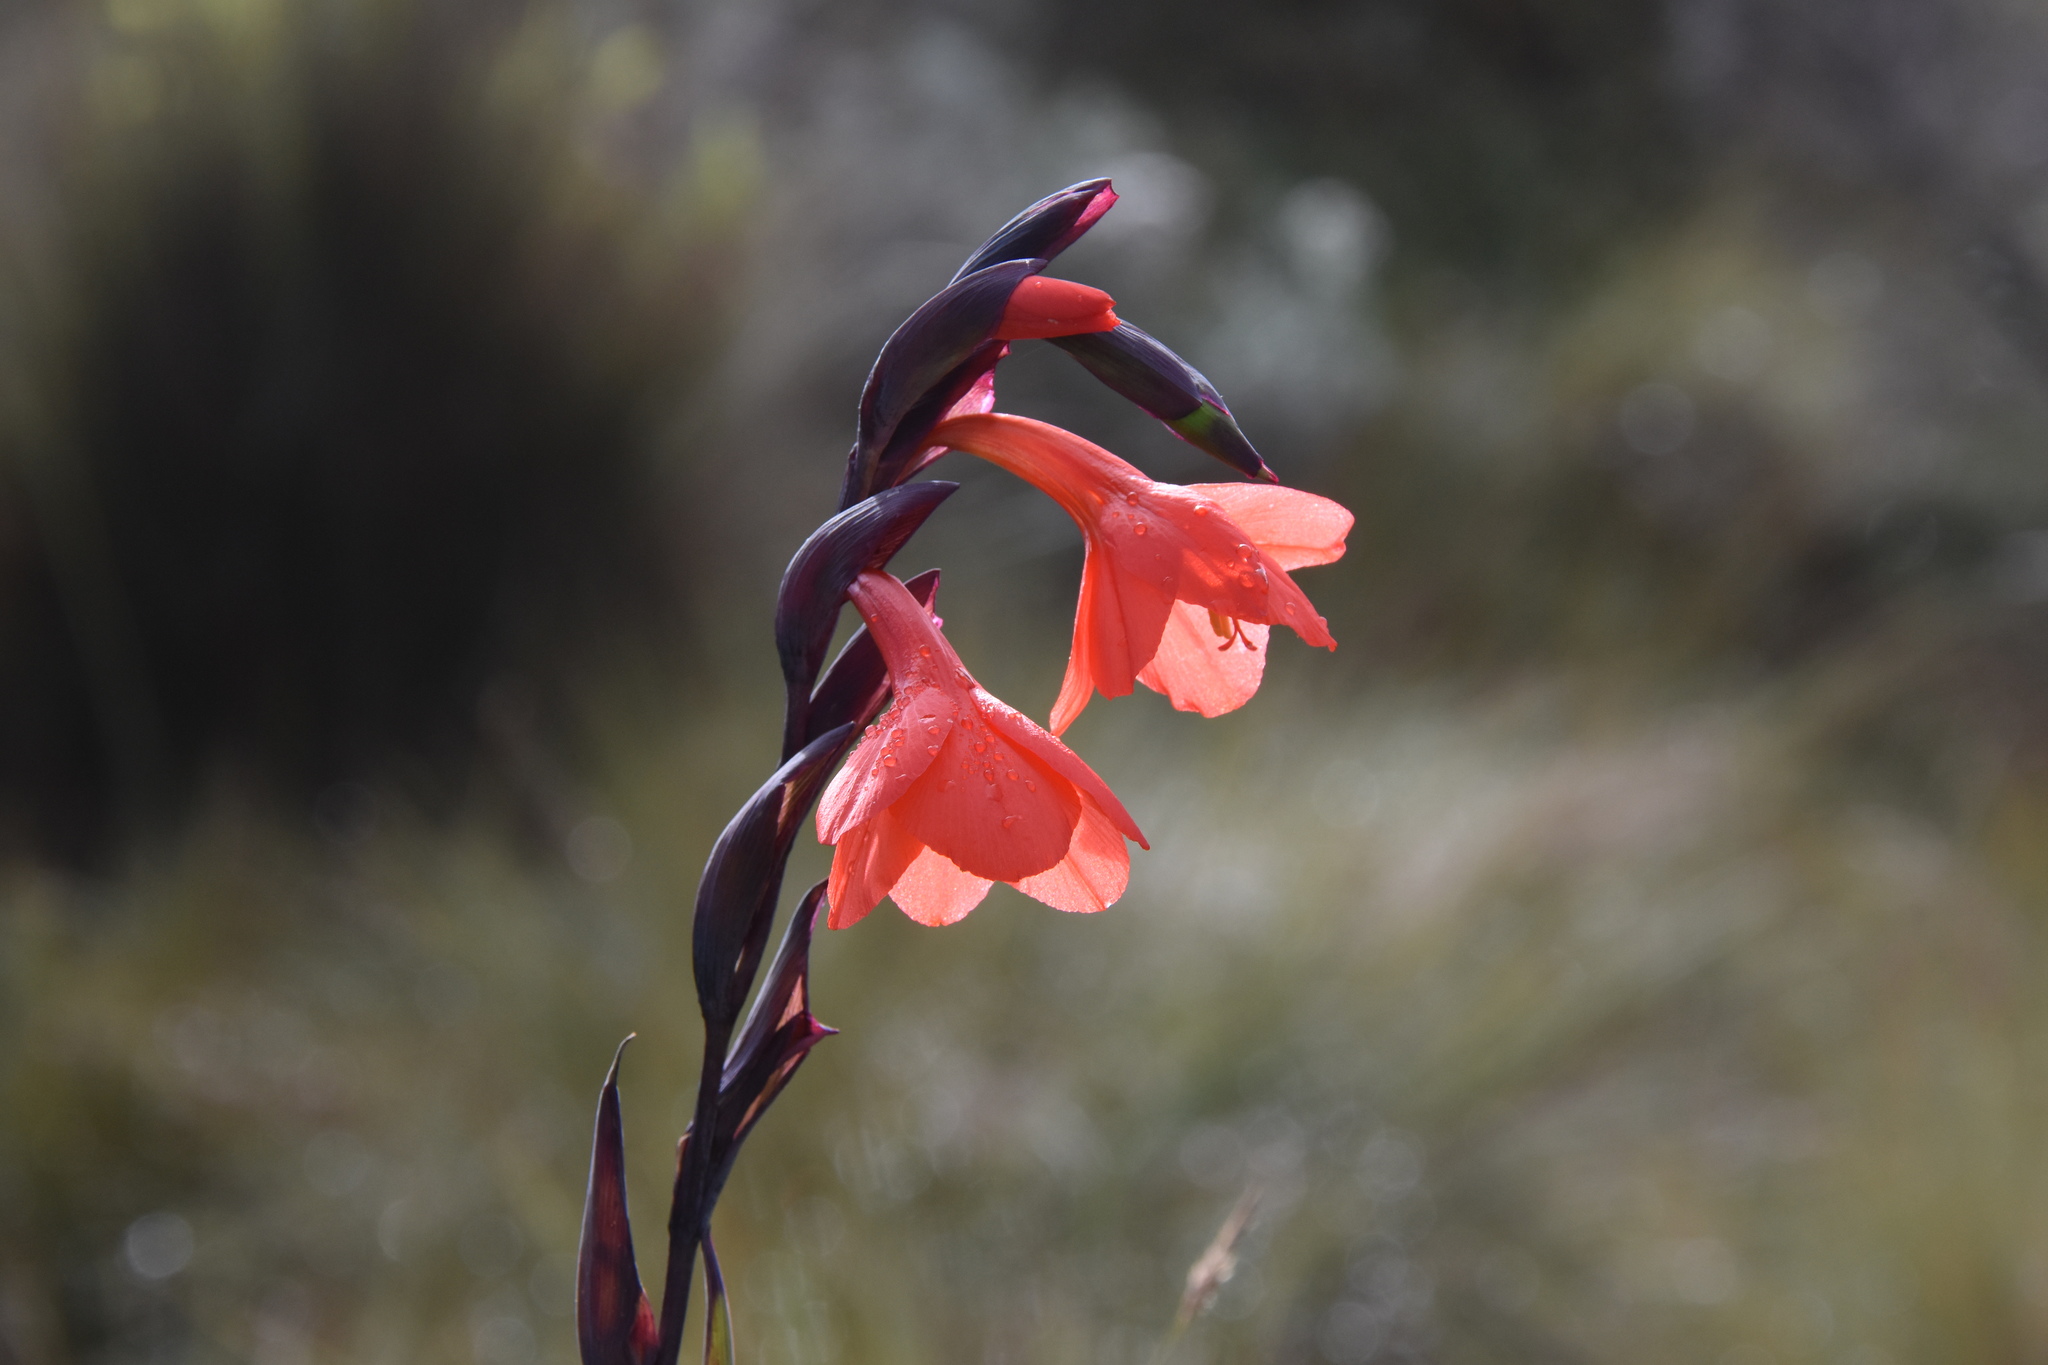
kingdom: Plantae
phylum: Tracheophyta
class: Liliopsida
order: Asparagales
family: Iridaceae
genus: Gladiolus
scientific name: Gladiolus watsonioides
